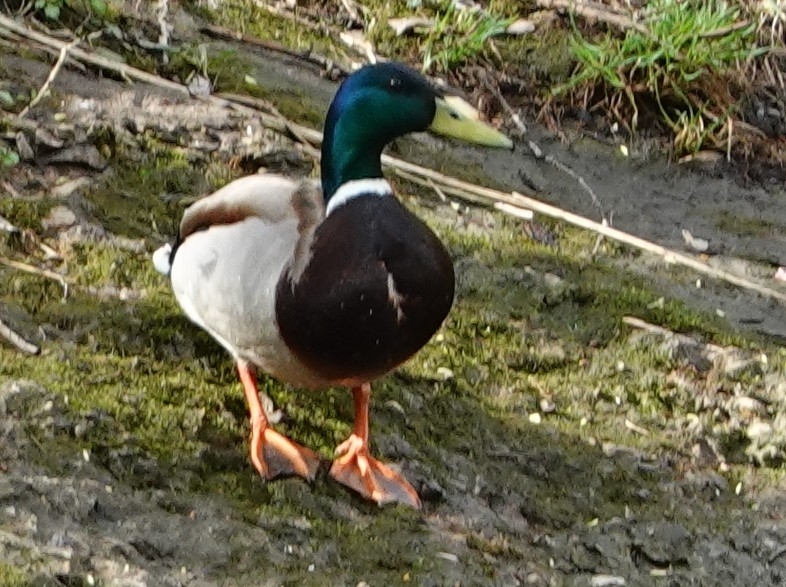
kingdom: Animalia
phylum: Chordata
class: Aves
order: Anseriformes
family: Anatidae
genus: Anas
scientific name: Anas platyrhynchos
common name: Mallard
